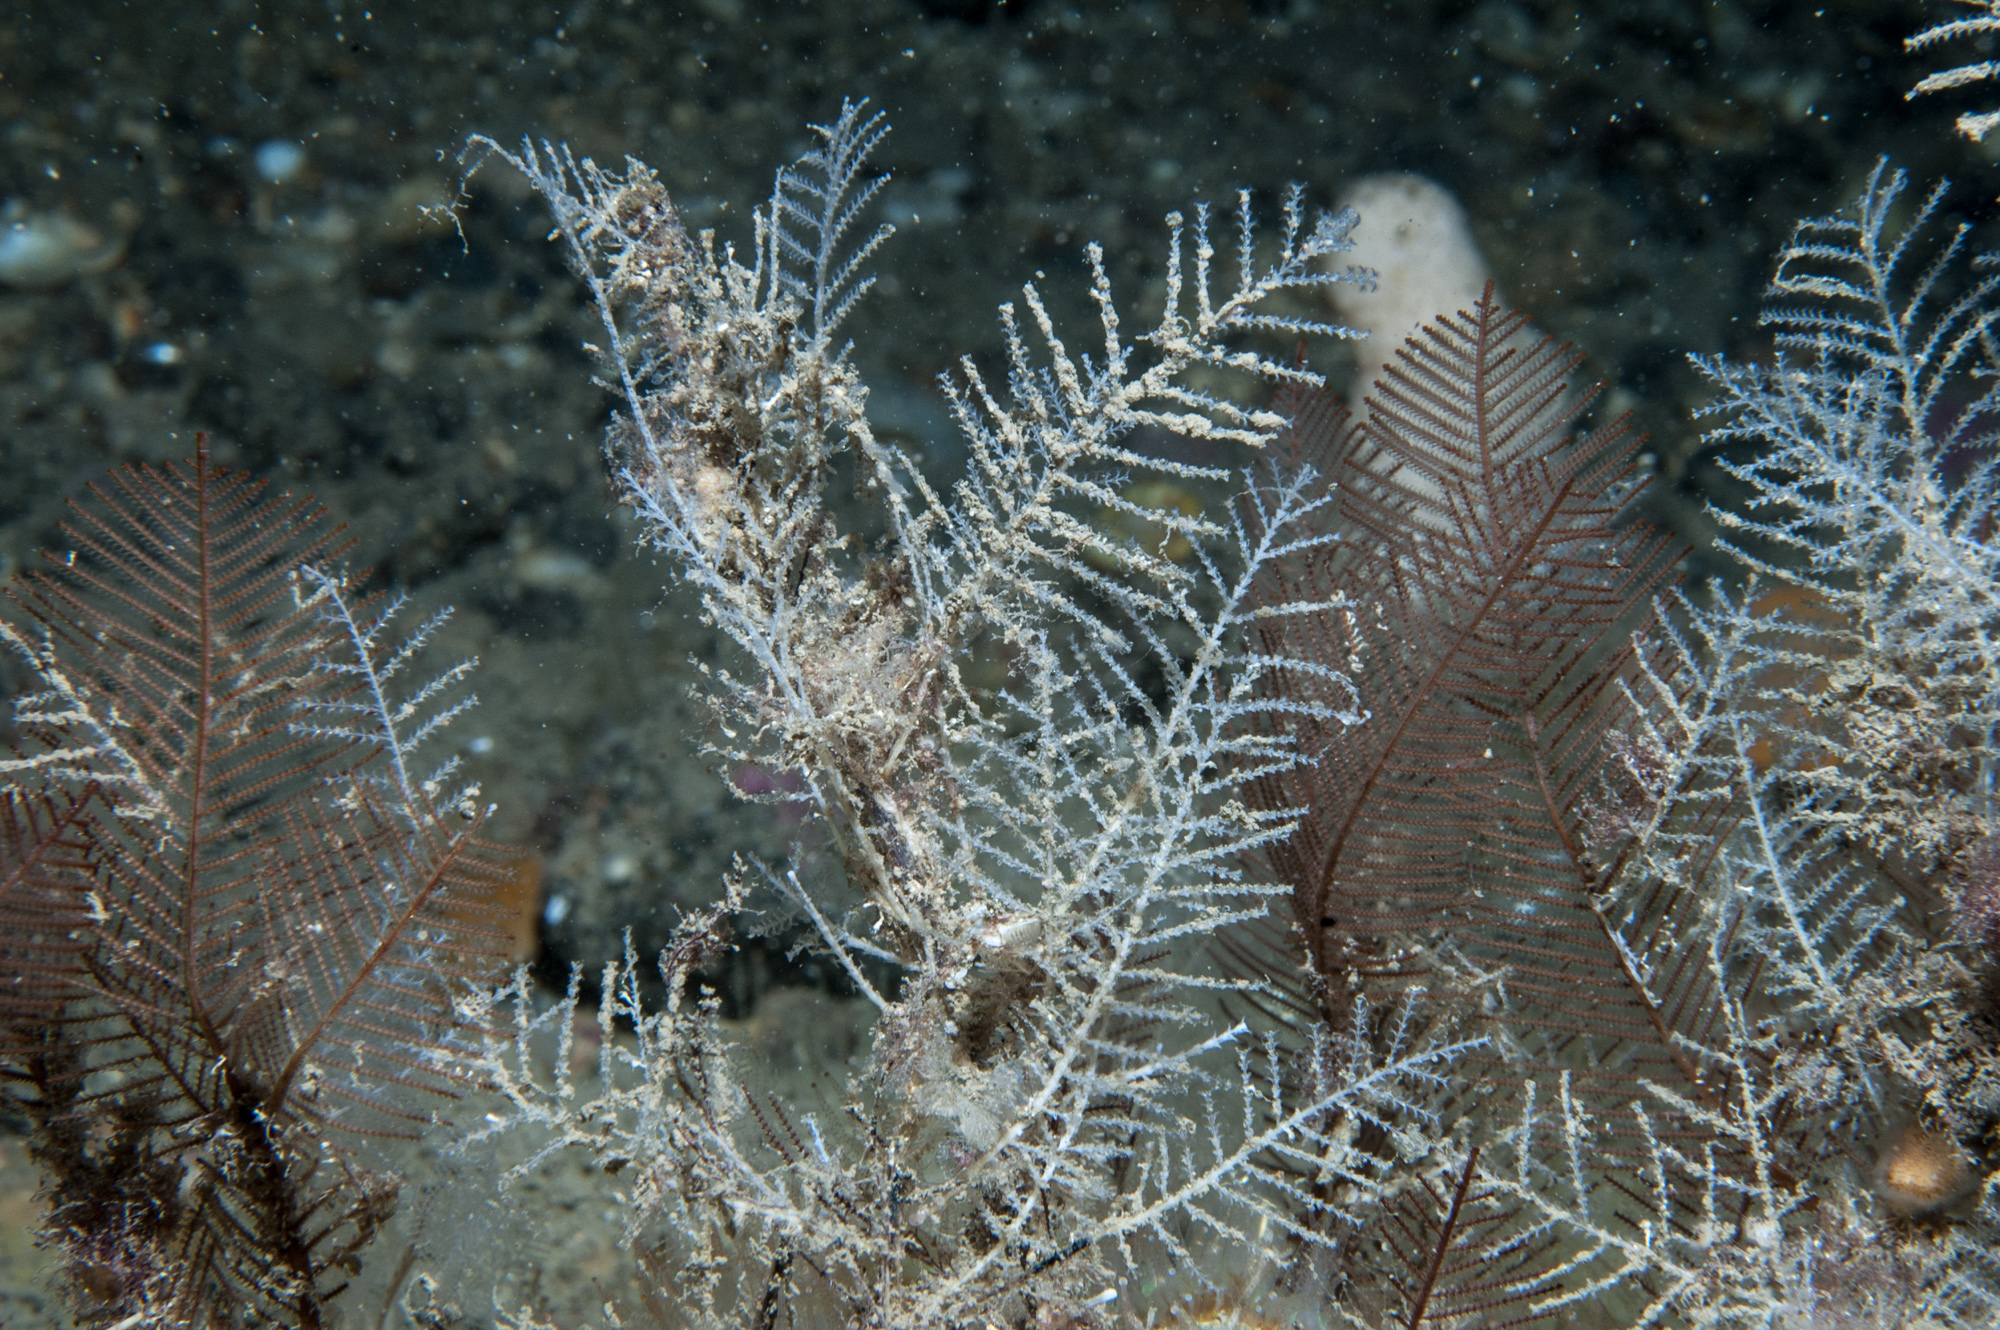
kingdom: Animalia
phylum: Cnidaria
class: Hydrozoa
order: Leptothecata
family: Sertulariidae
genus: Diphasia
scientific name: Diphasia fallax
